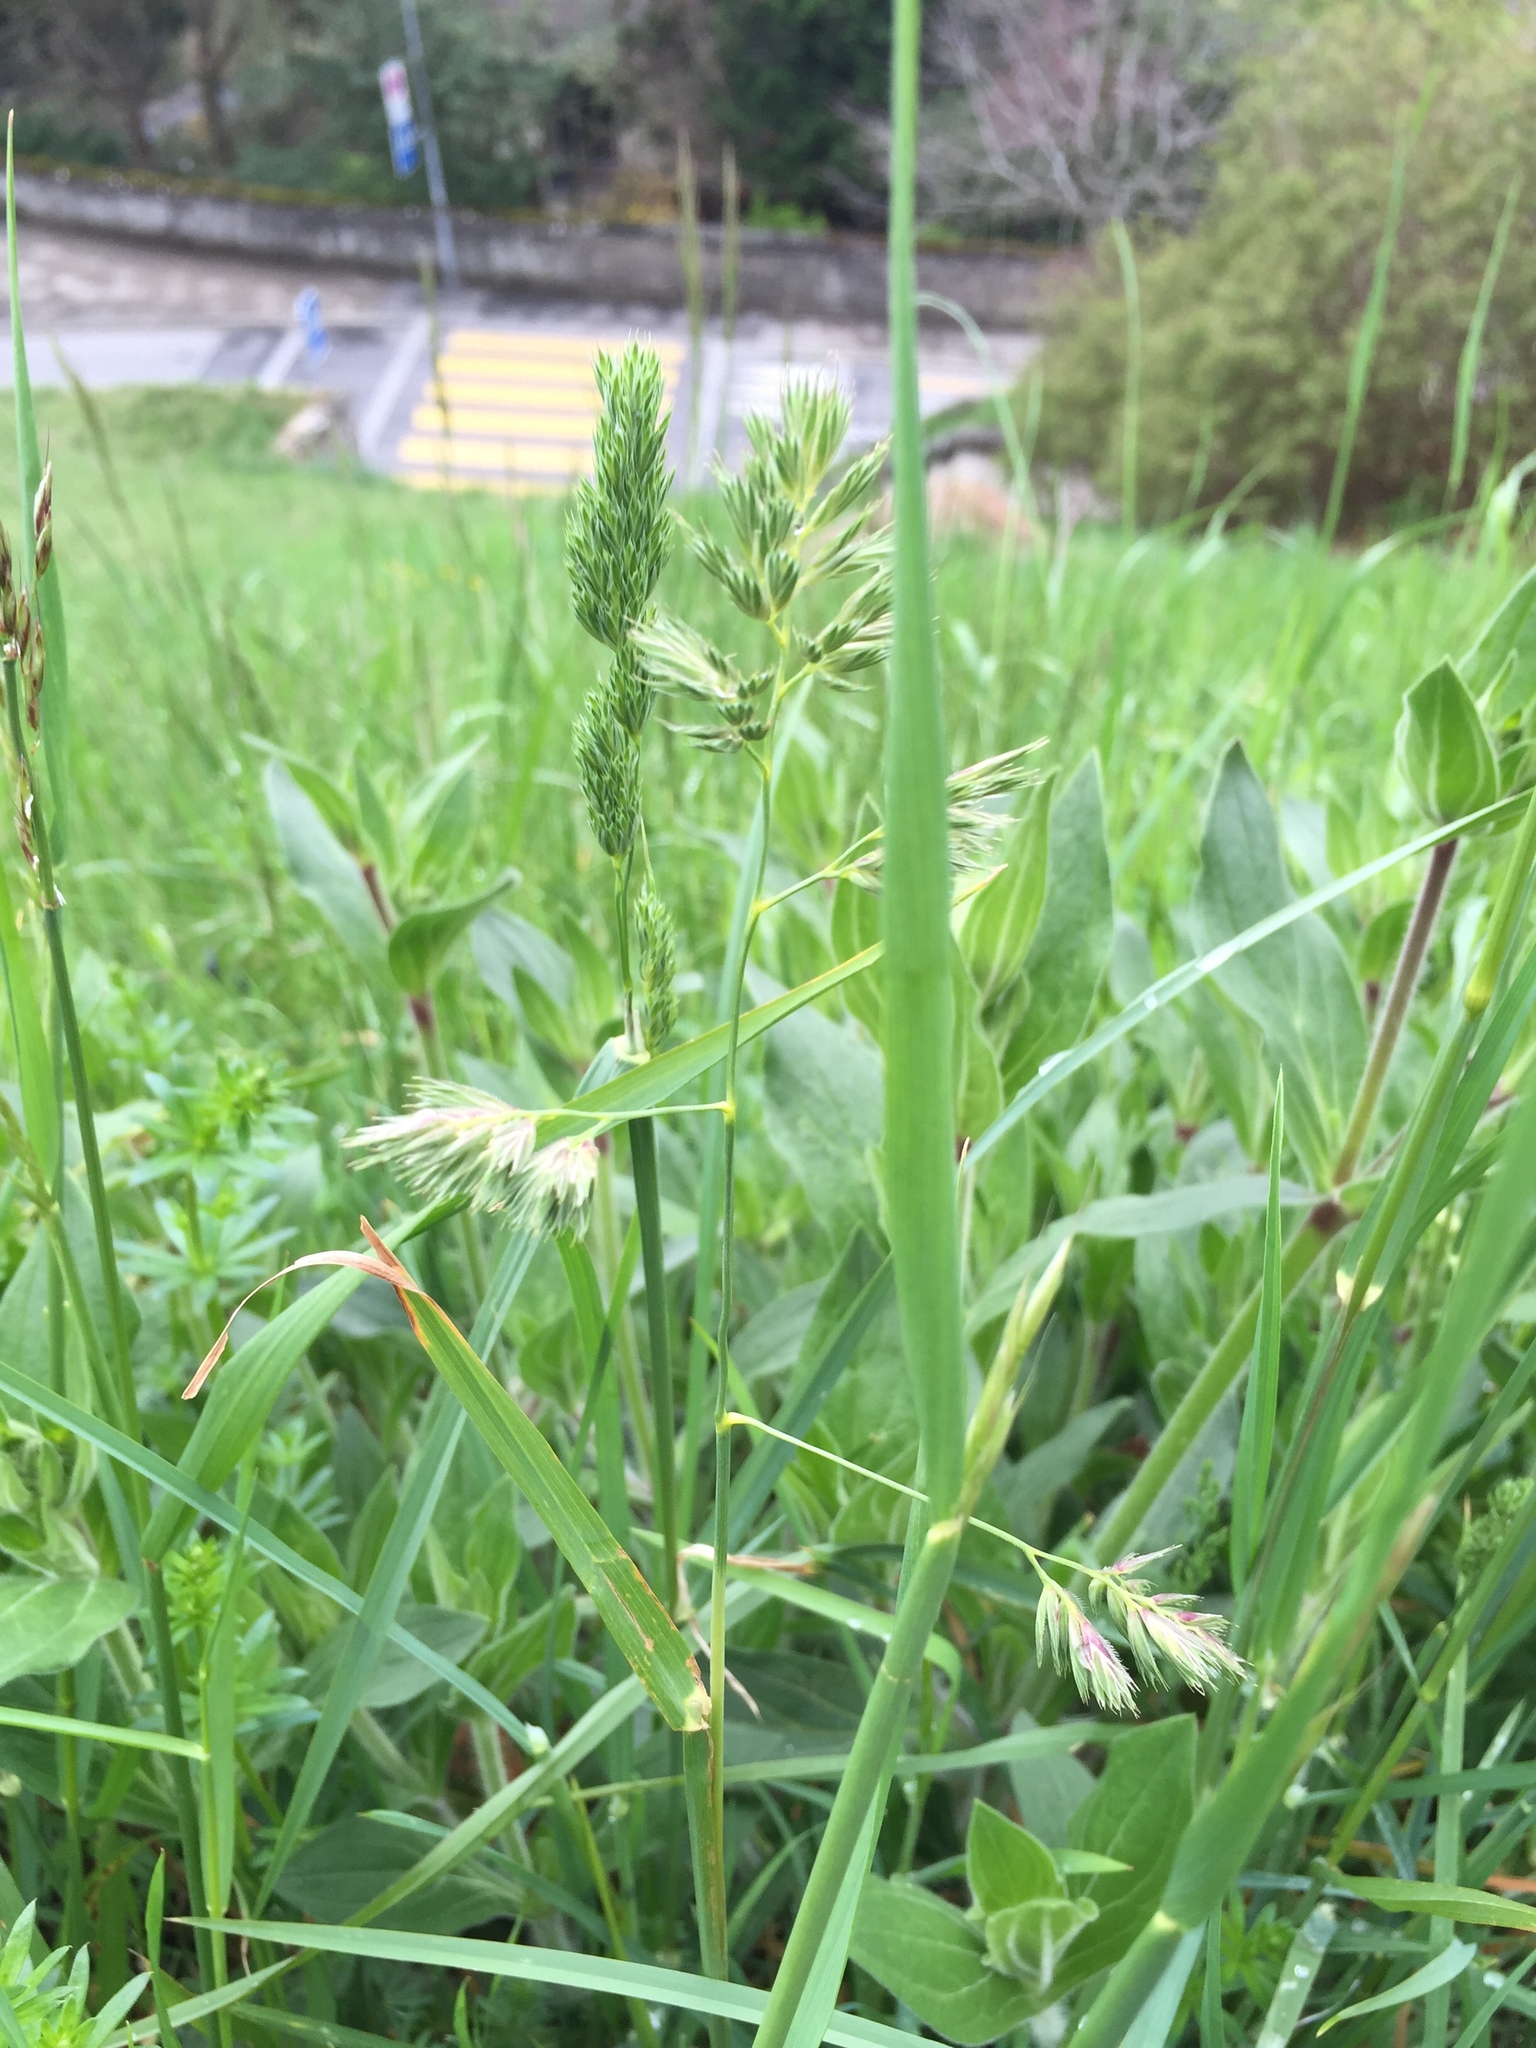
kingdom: Plantae
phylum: Tracheophyta
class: Liliopsida
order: Poales
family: Poaceae
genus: Dactylis
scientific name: Dactylis glomerata
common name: Orchardgrass
